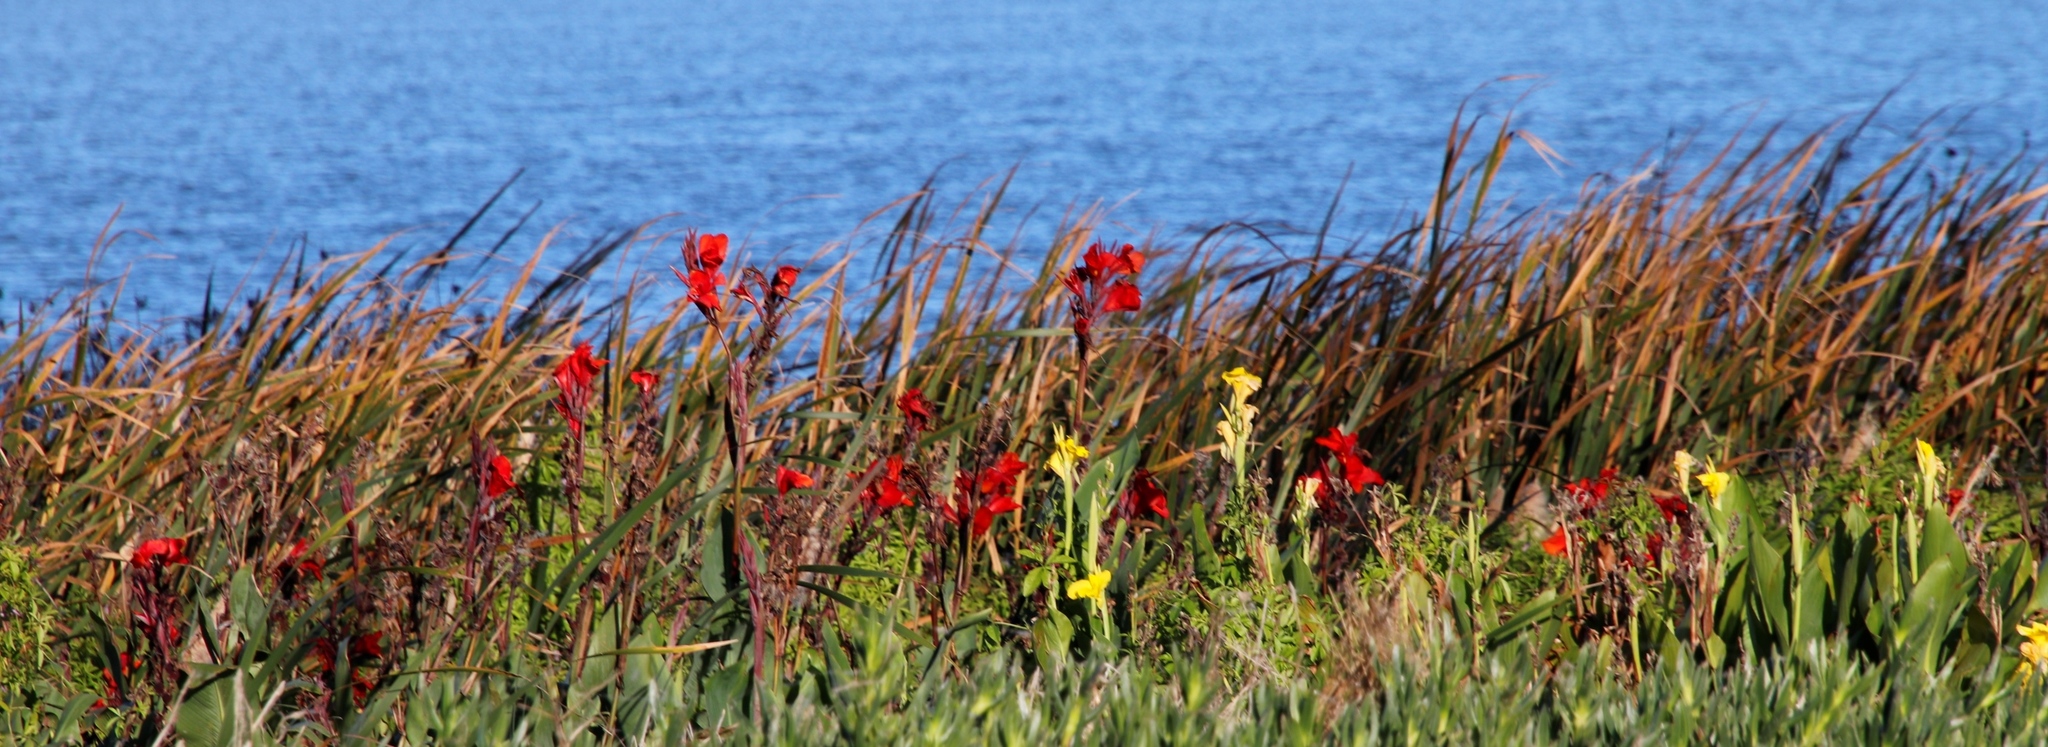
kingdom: Plantae
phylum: Tracheophyta
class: Liliopsida
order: Zingiberales
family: Cannaceae
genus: Canna
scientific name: Canna hybrida
